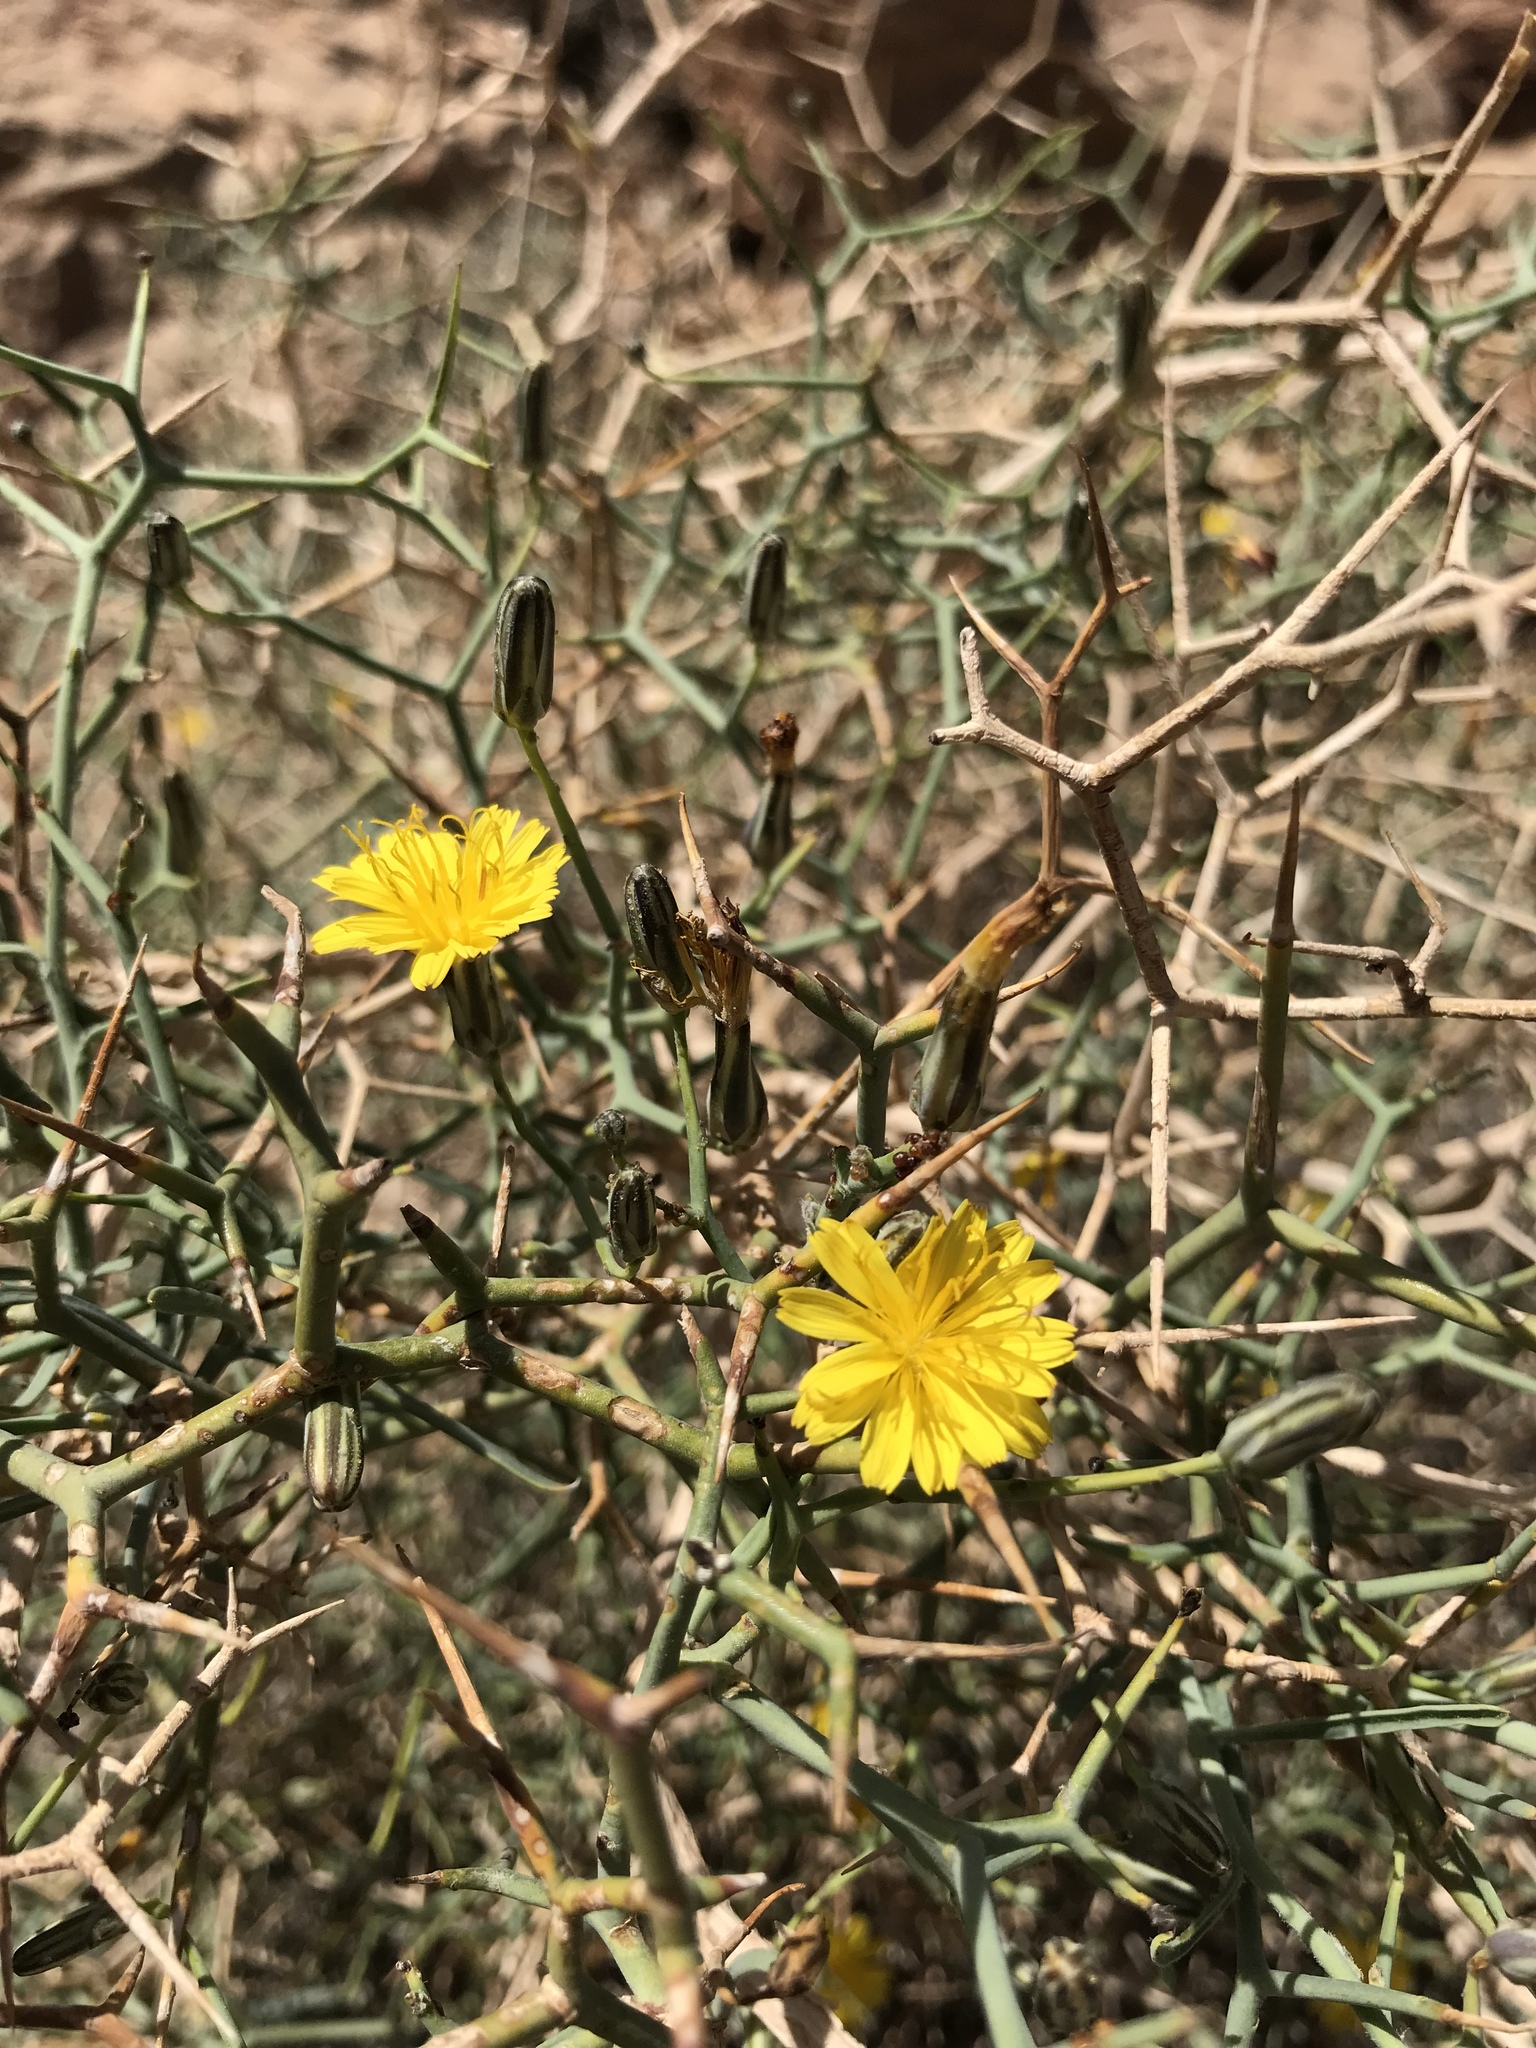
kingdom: Plantae
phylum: Tracheophyta
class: Magnoliopsida
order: Asterales
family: Asteraceae
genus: Launaea
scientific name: Launaea arborescens
